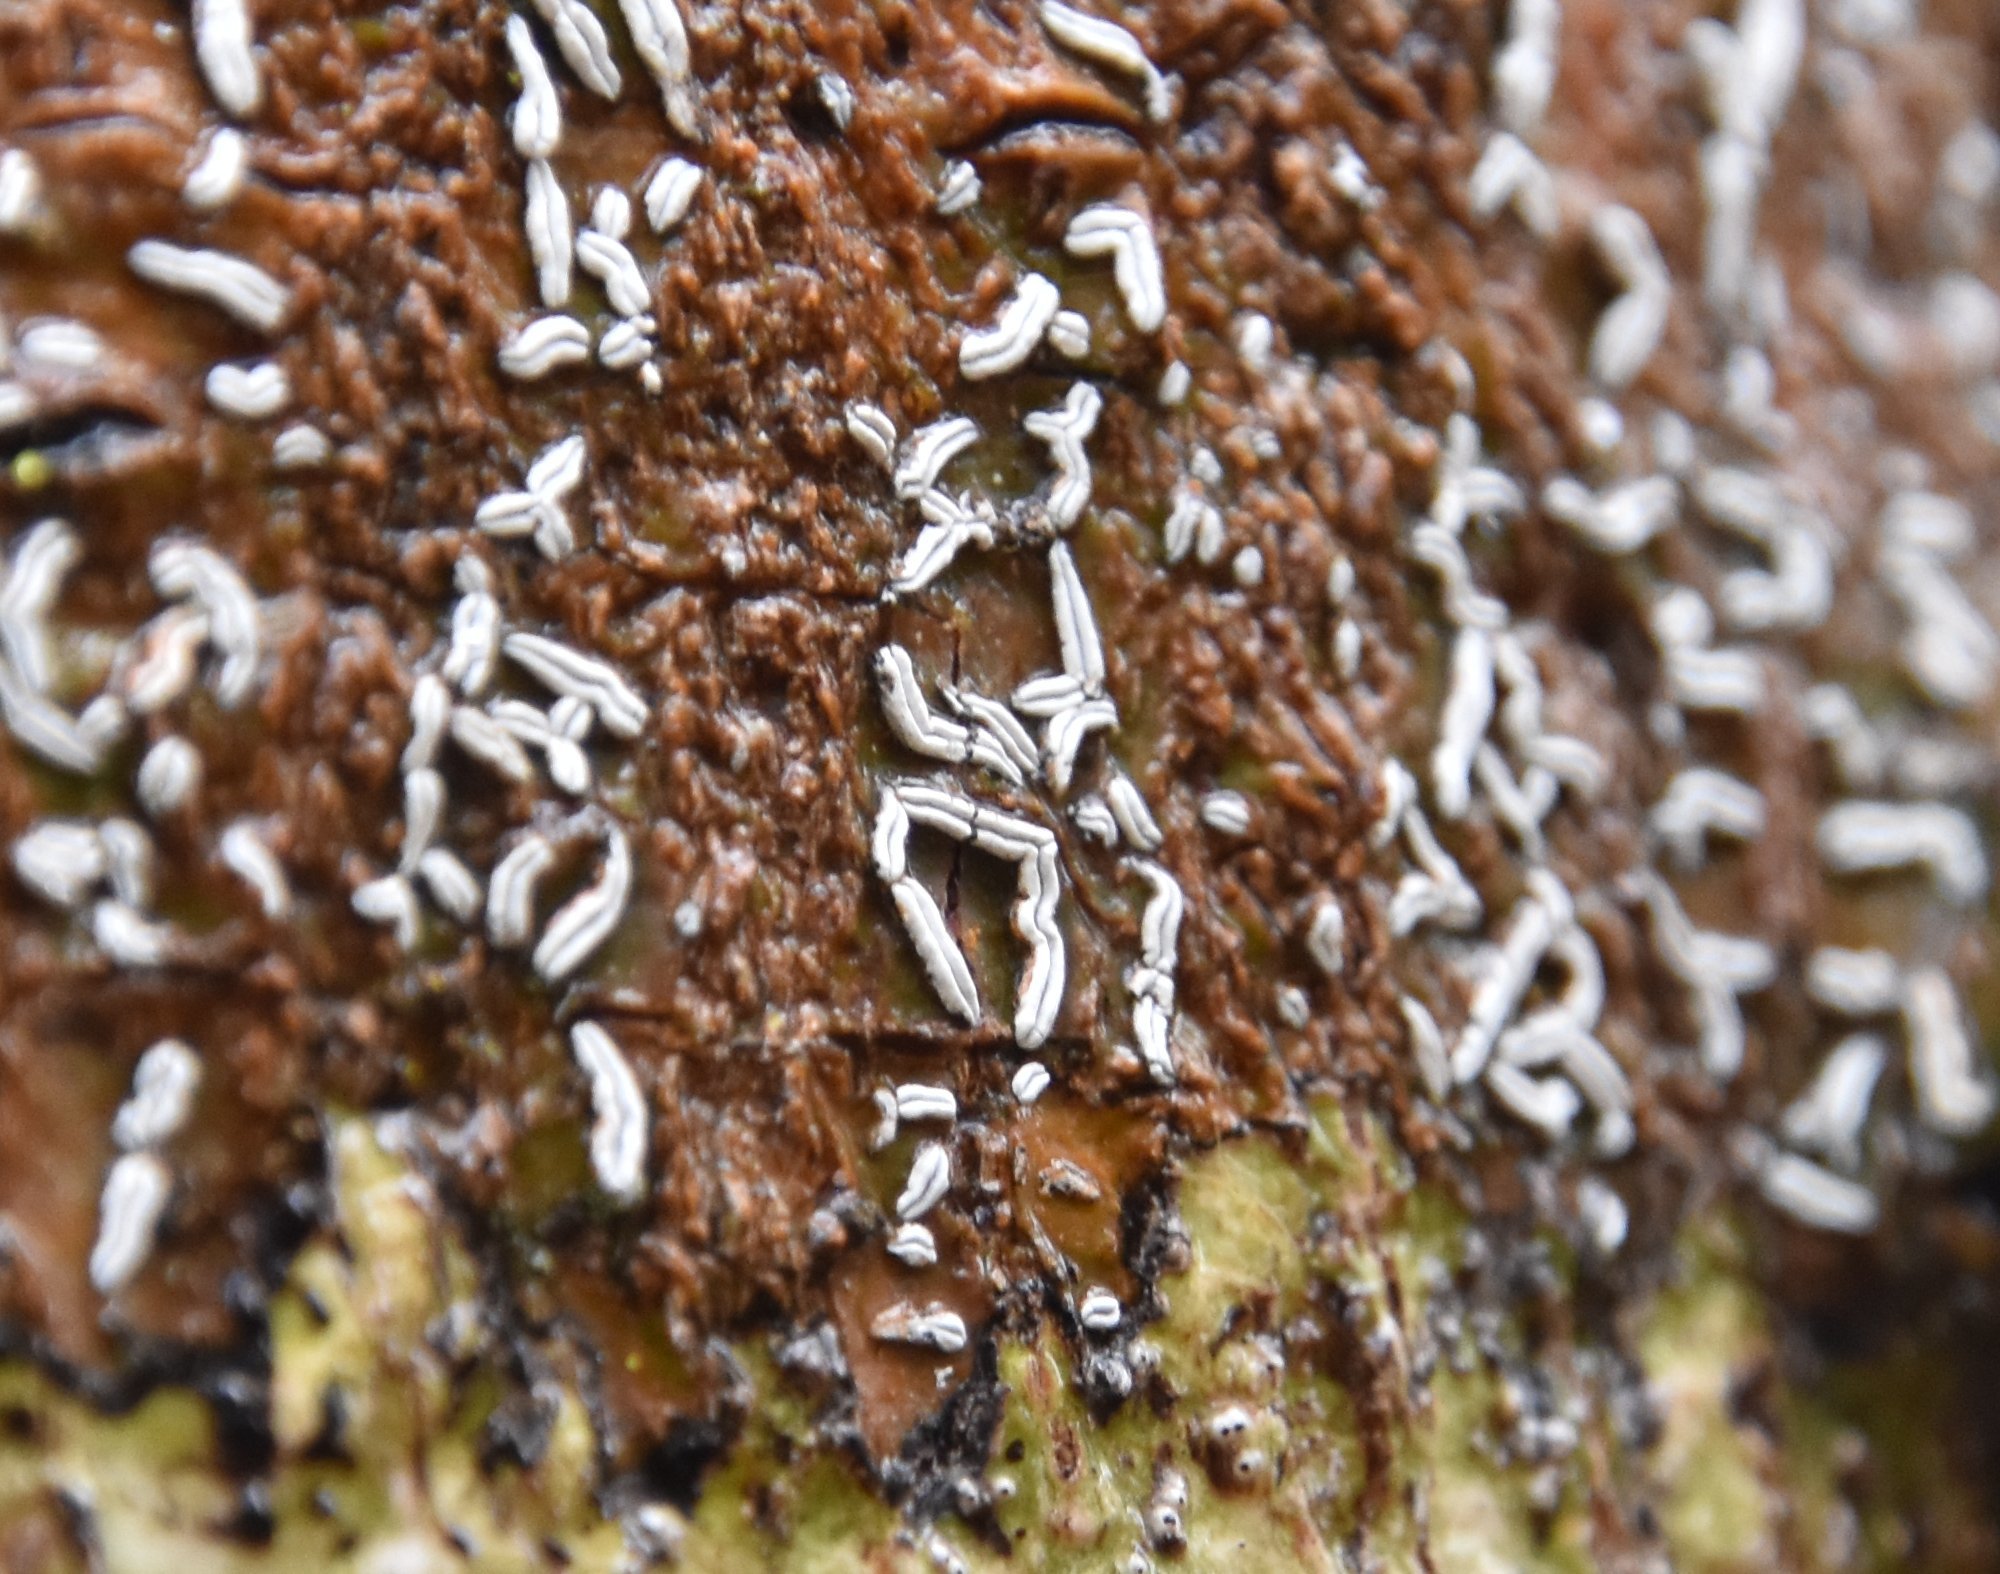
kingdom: Fungi
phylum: Ascomycota
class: Lecanoromycetes
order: Ostropales
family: Graphidaceae
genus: Dyplolabia
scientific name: Dyplolabia afzelii
